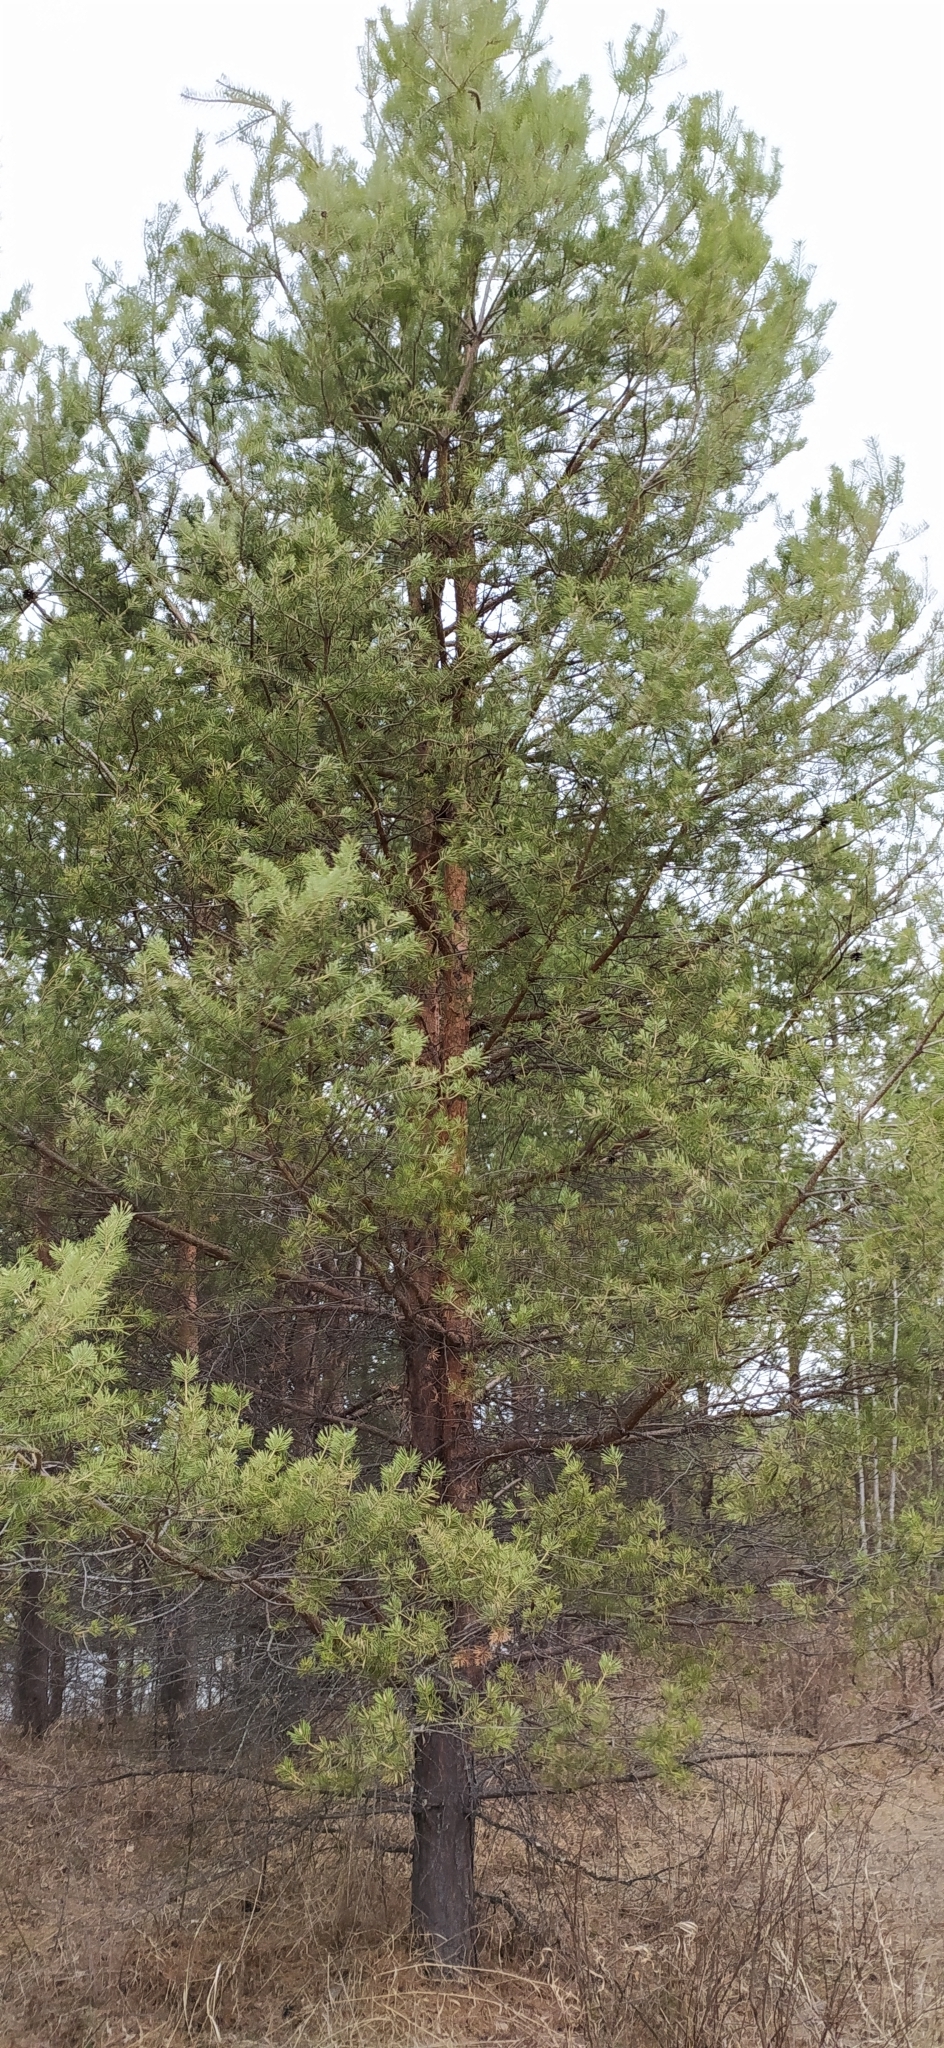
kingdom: Plantae
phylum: Tracheophyta
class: Pinopsida
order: Pinales
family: Pinaceae
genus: Pinus
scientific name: Pinus sylvestris
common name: Scots pine
